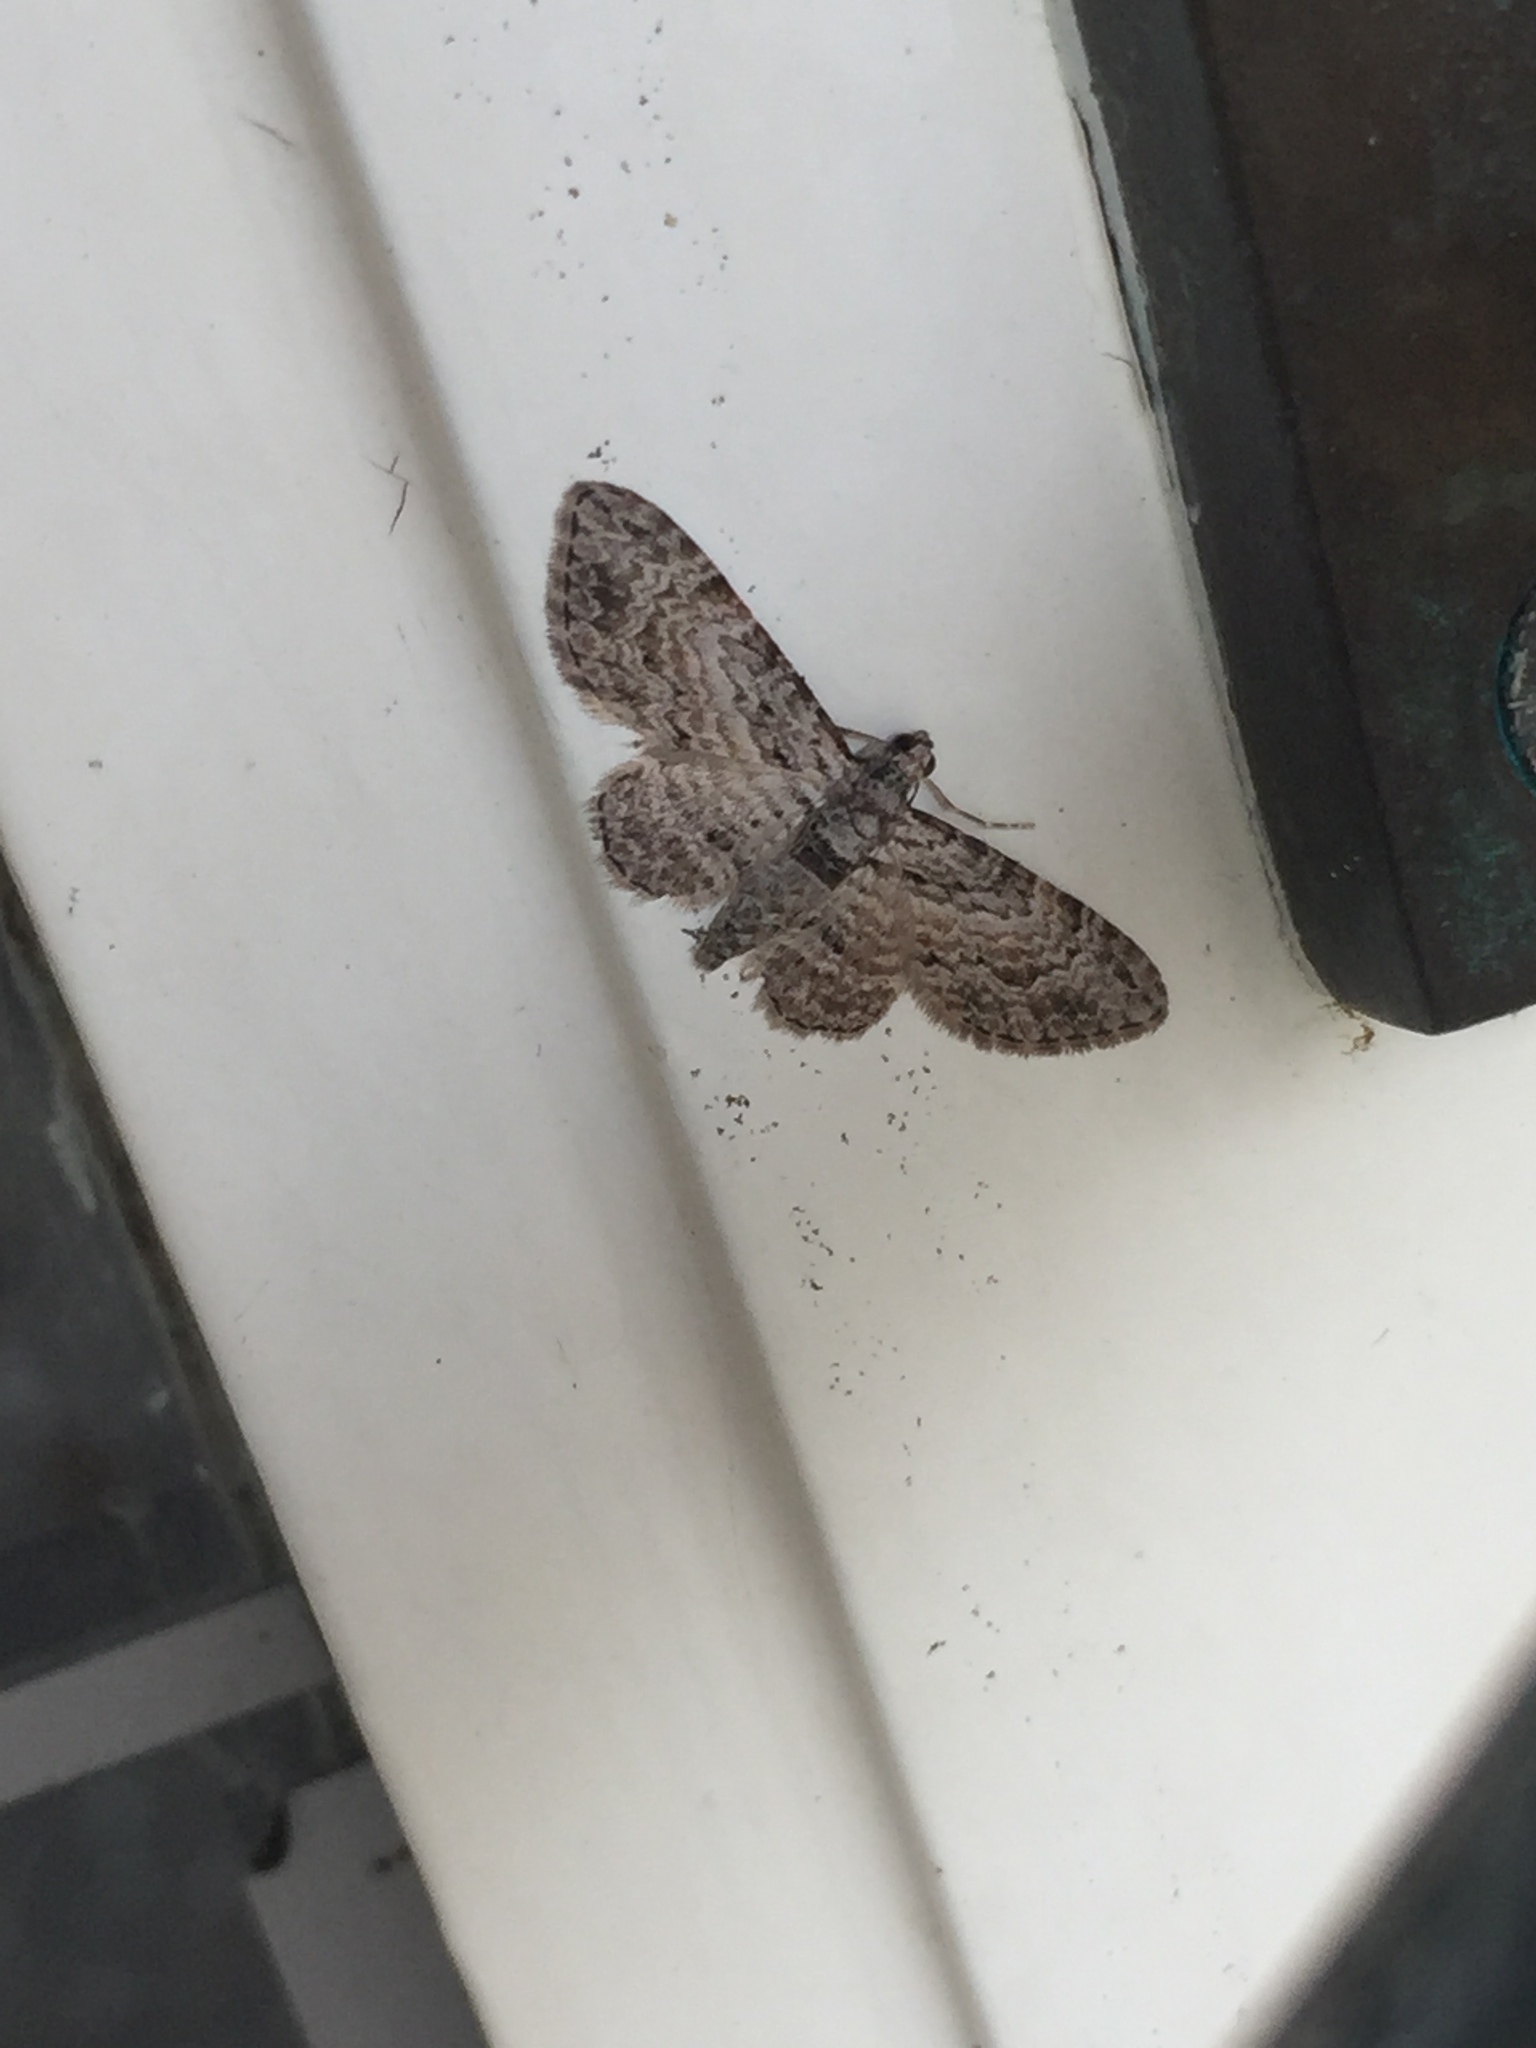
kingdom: Animalia
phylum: Arthropoda
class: Insecta
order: Lepidoptera
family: Geometridae
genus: Chloroclystis
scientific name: Chloroclystis insigillata
